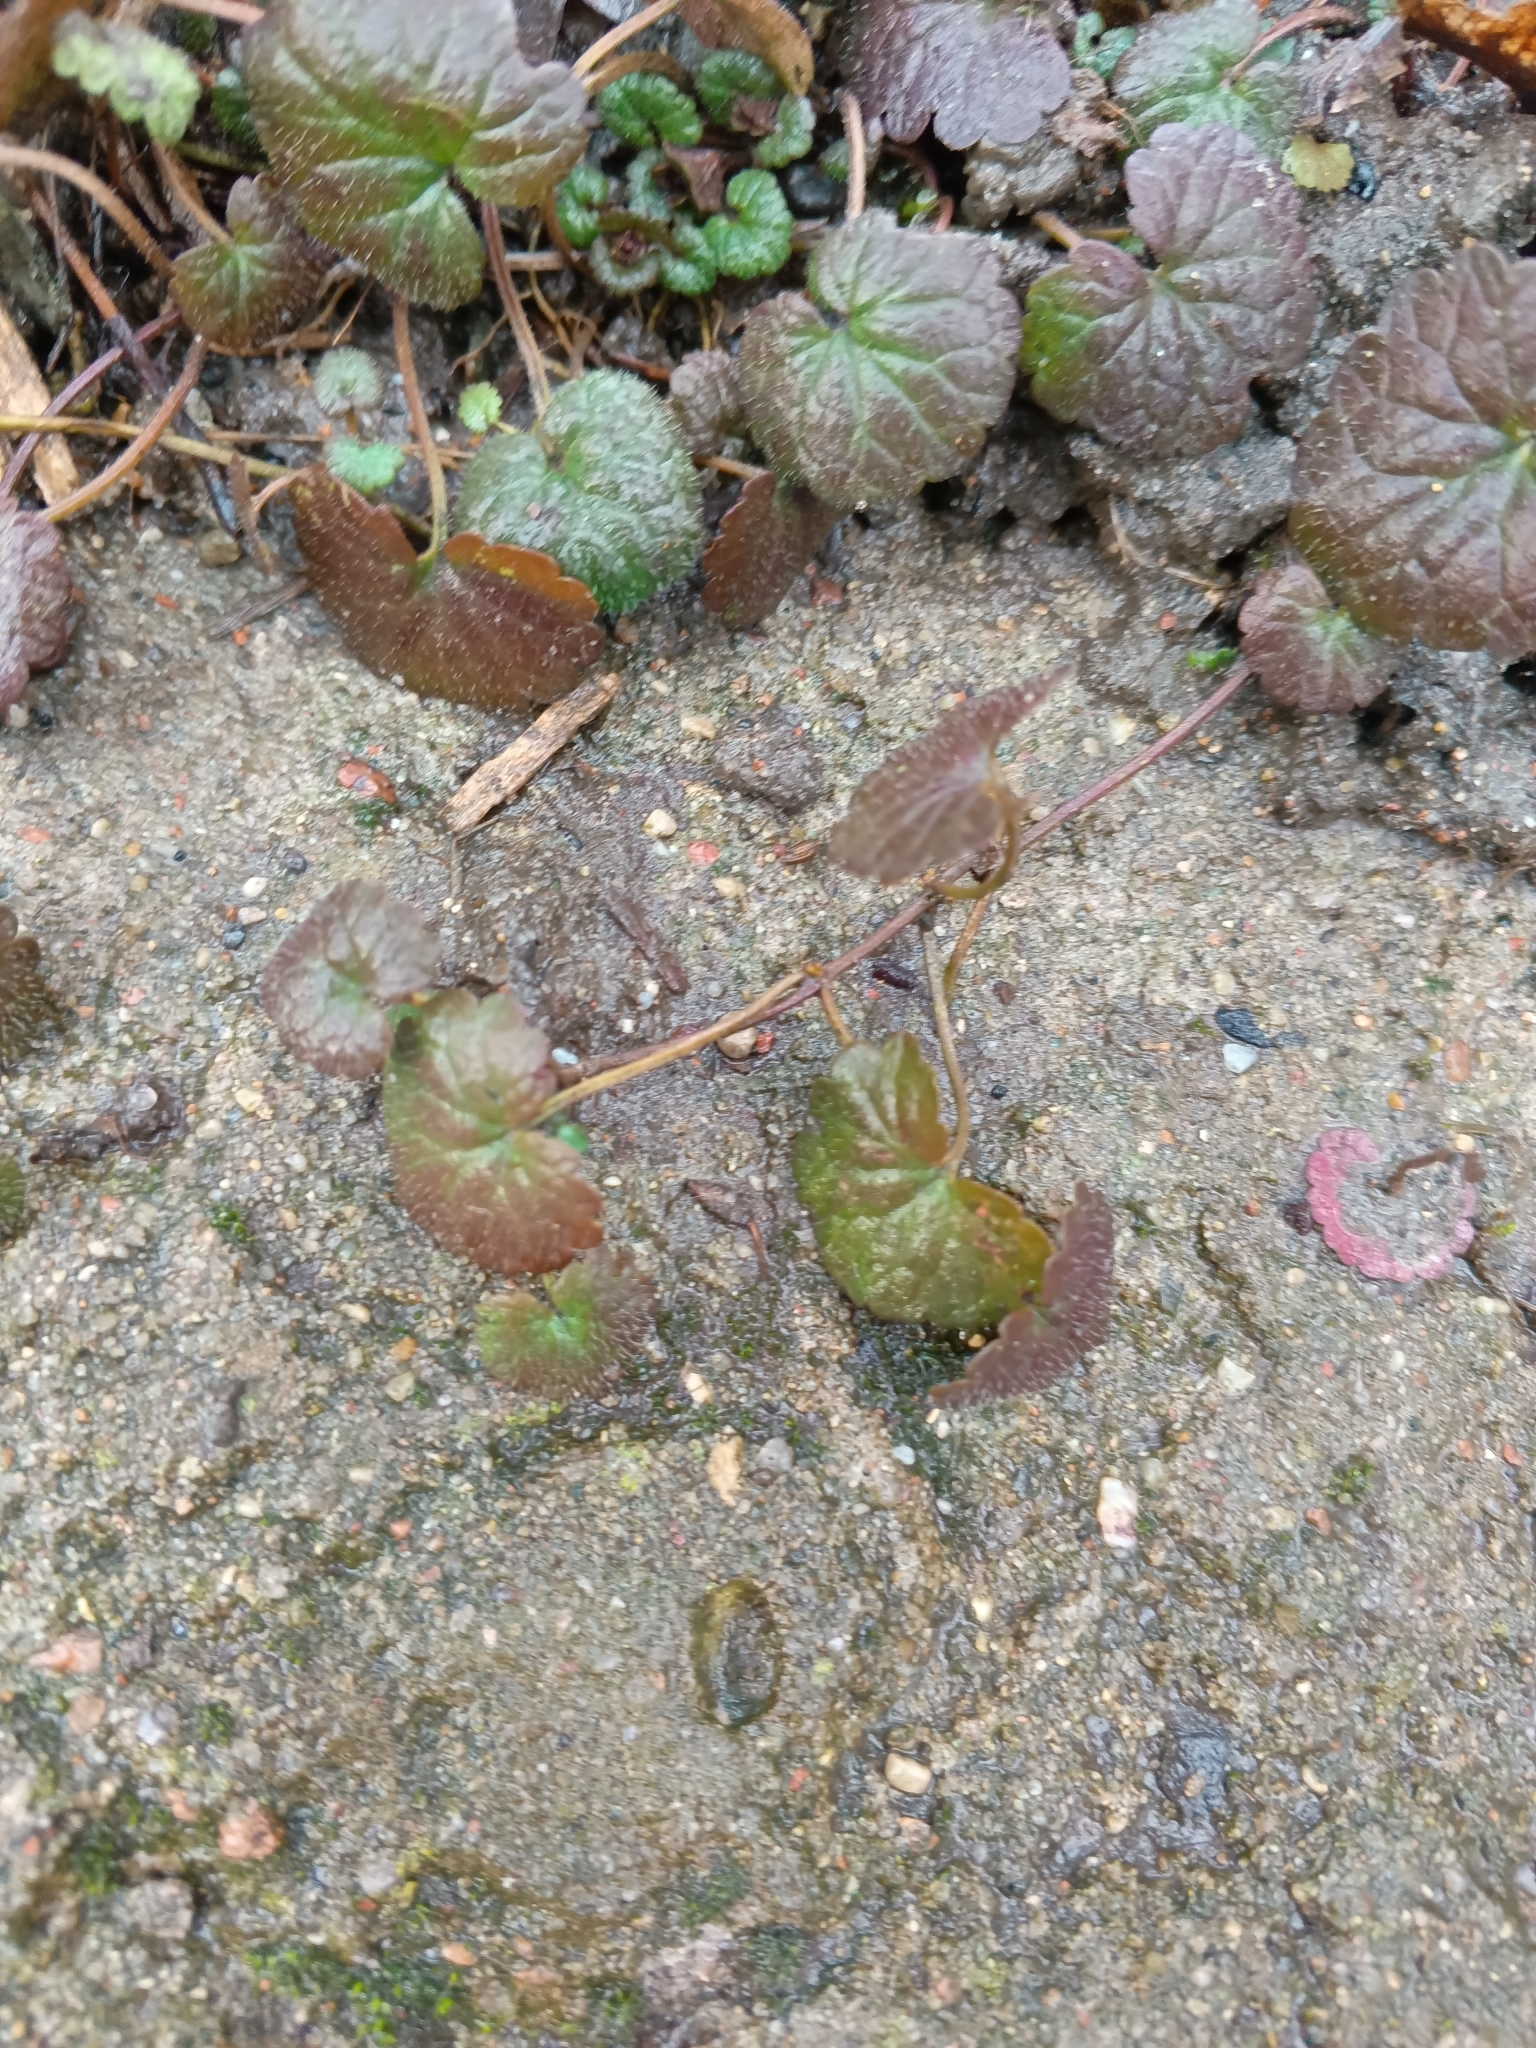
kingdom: Plantae
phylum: Tracheophyta
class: Magnoliopsida
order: Lamiales
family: Lamiaceae
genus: Glechoma
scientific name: Glechoma hederacea
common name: Ground ivy
